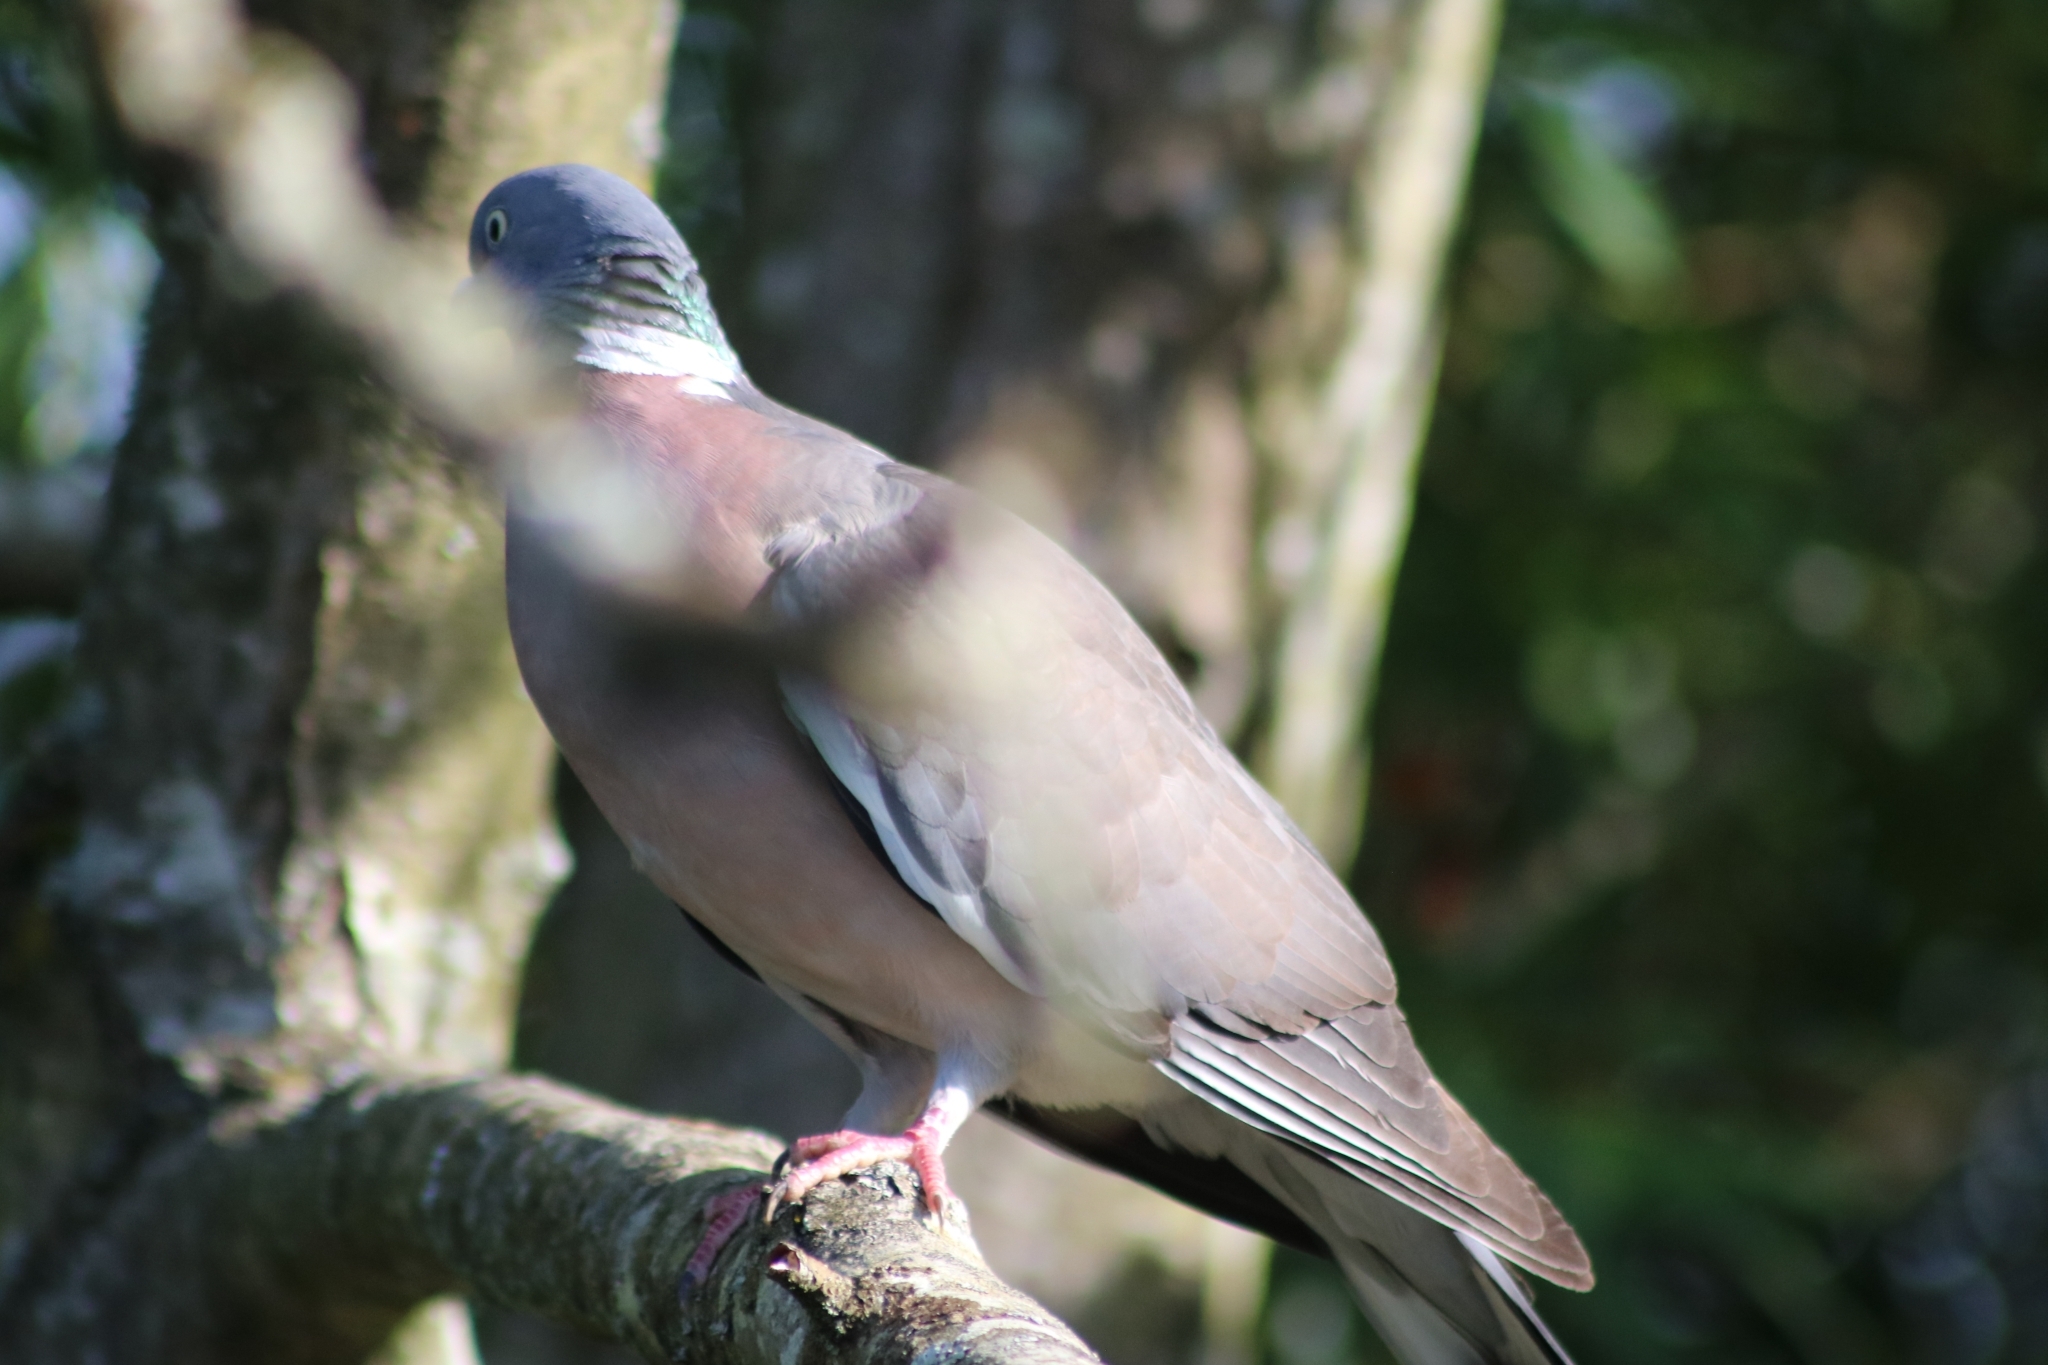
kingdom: Animalia
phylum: Chordata
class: Aves
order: Columbiformes
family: Columbidae
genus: Columba
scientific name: Columba palumbus
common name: Common wood pigeon
